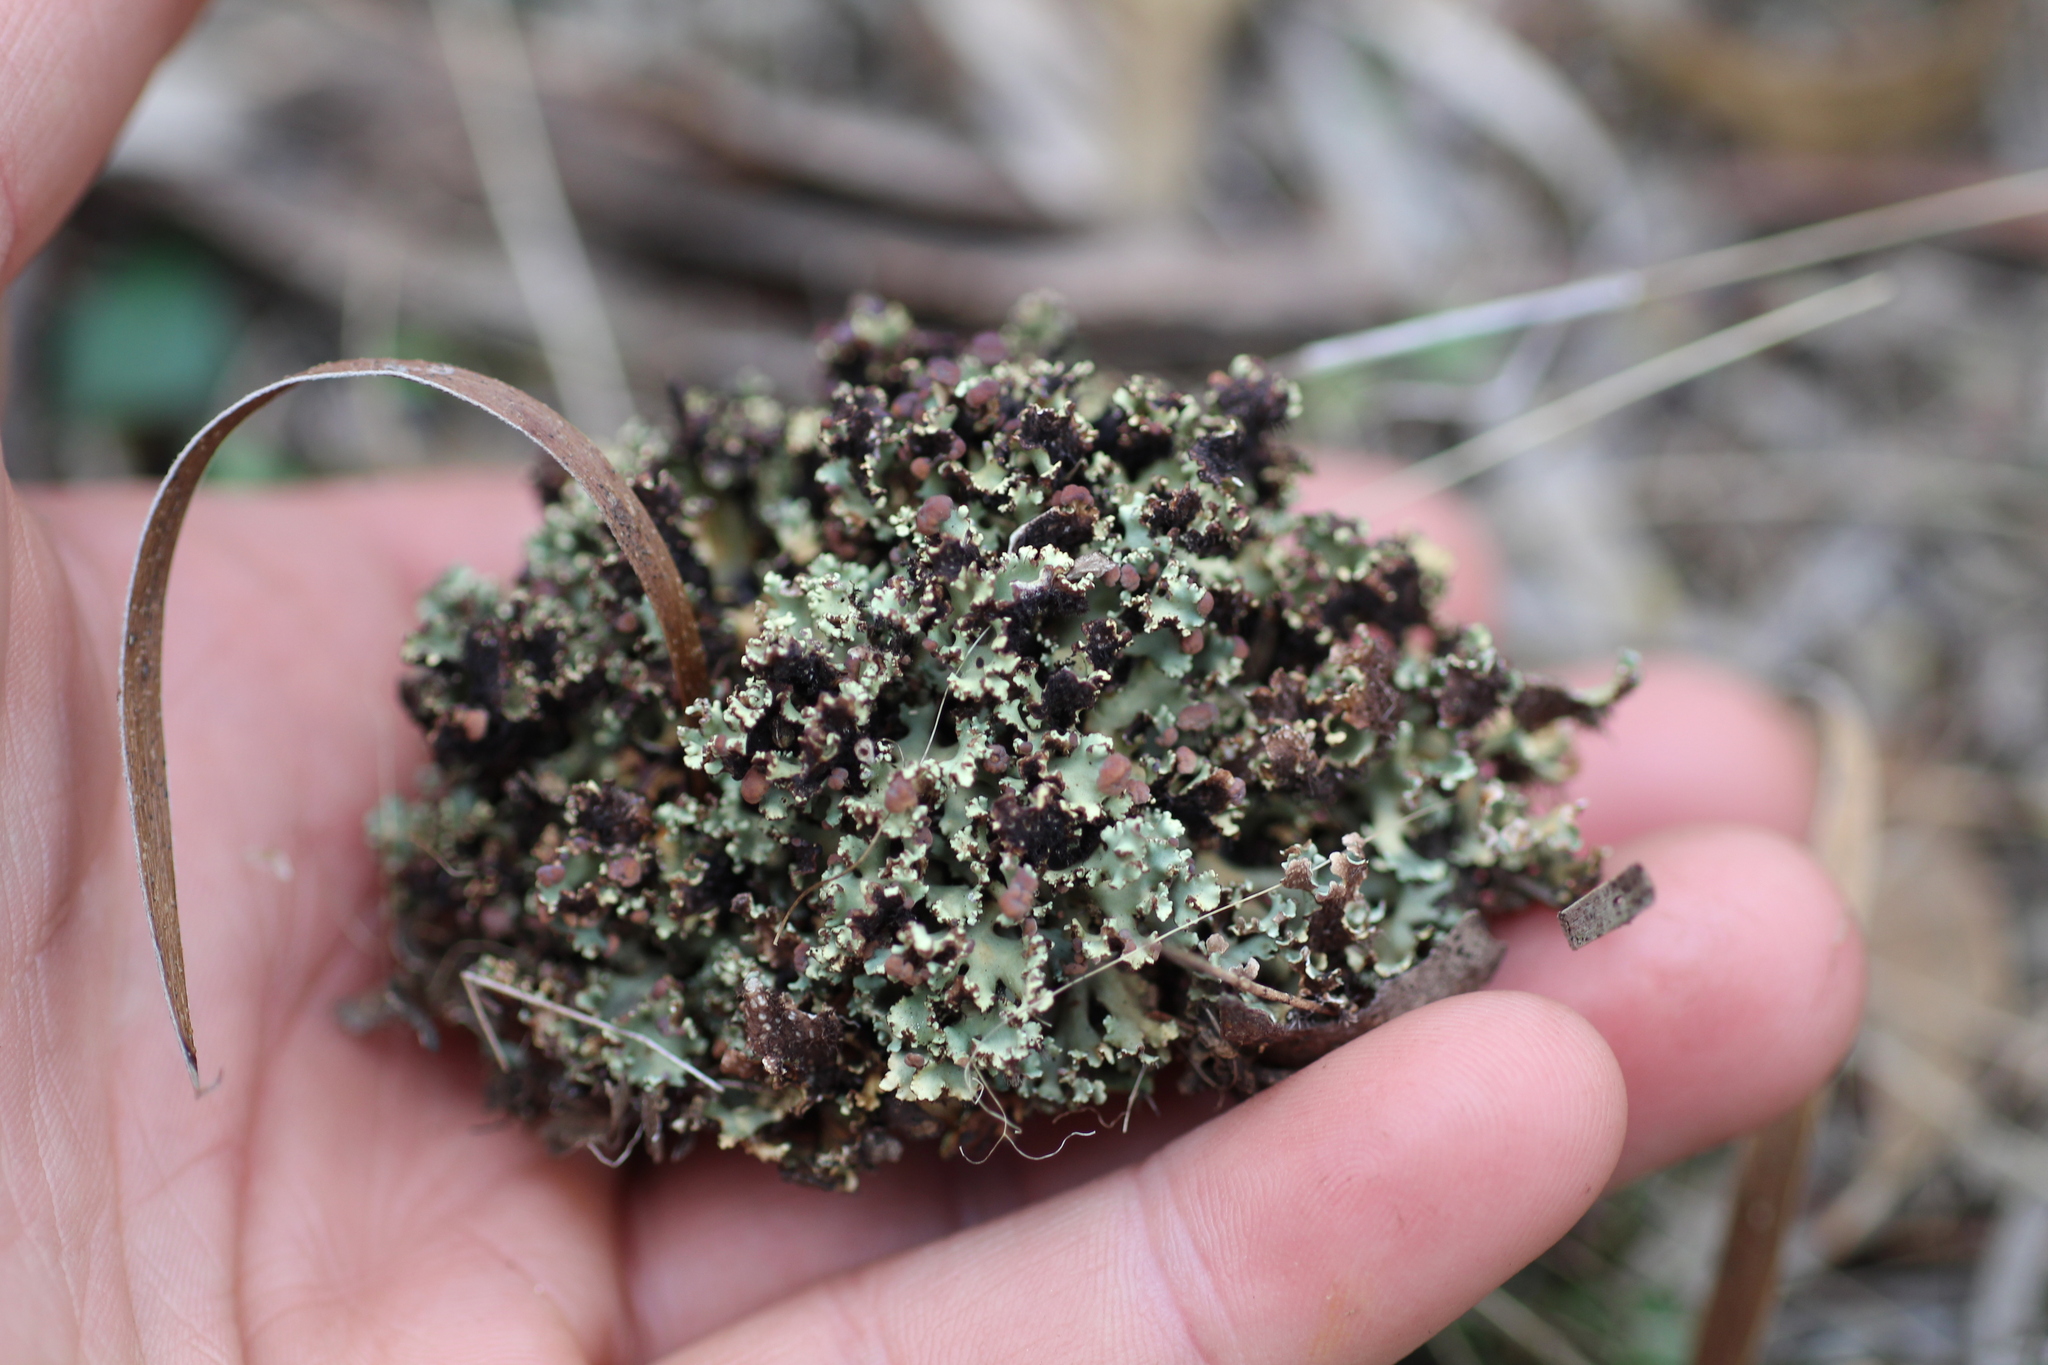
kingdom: Fungi
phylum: Ascomycota
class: Lecanoromycetes
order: Lecanorales
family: Cladoniaceae
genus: Cladia
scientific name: Cladia muelleri
